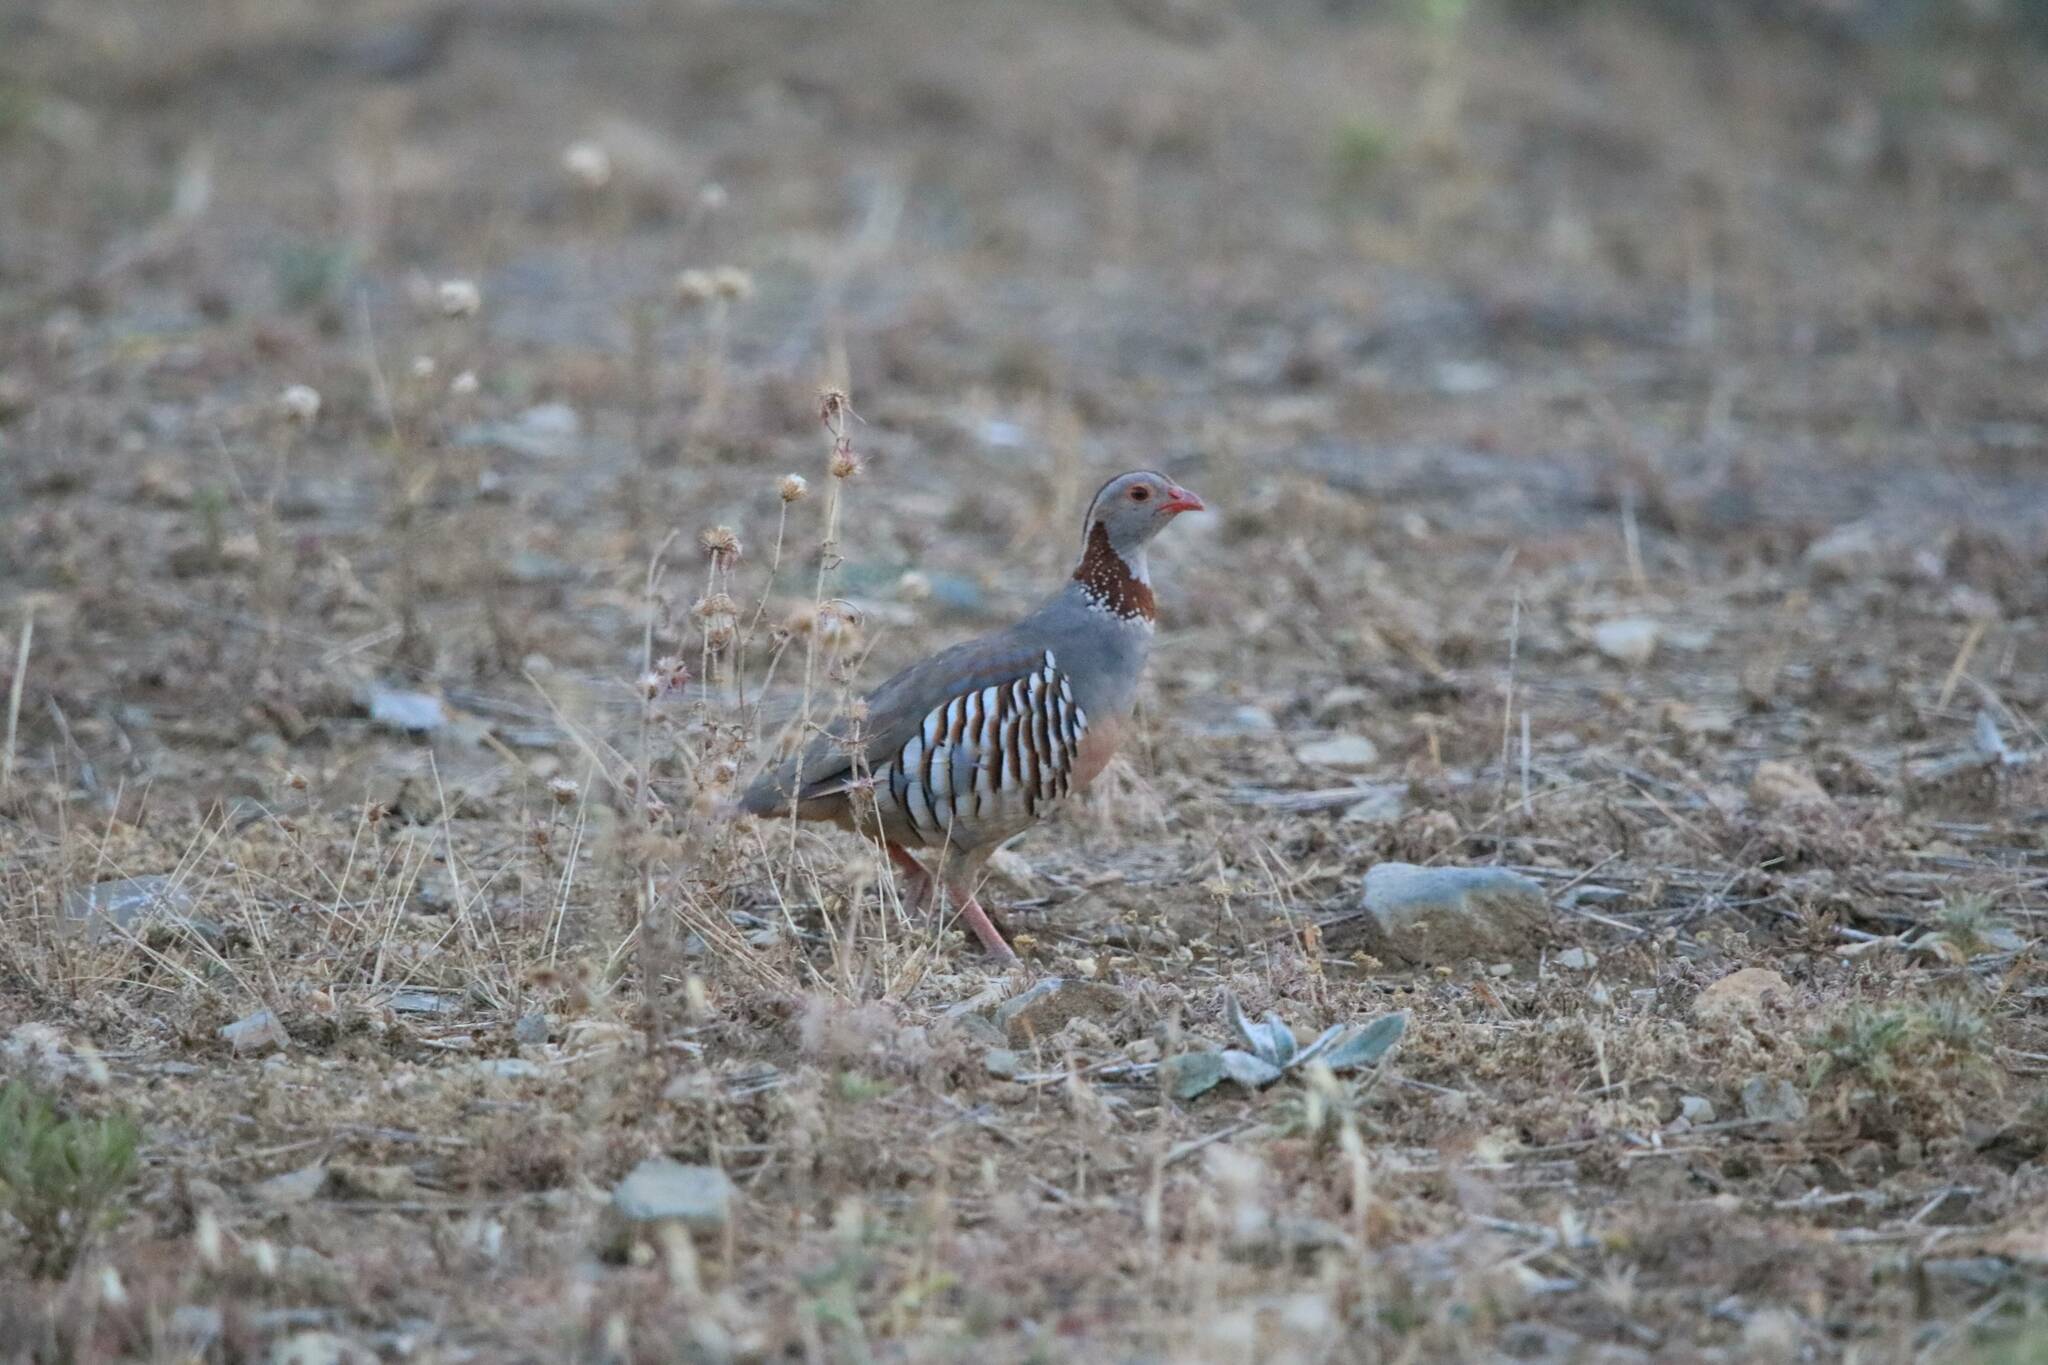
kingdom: Animalia
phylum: Chordata
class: Aves
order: Galliformes
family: Phasianidae
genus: Alectoris
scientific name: Alectoris barbara
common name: Barbary partridge
